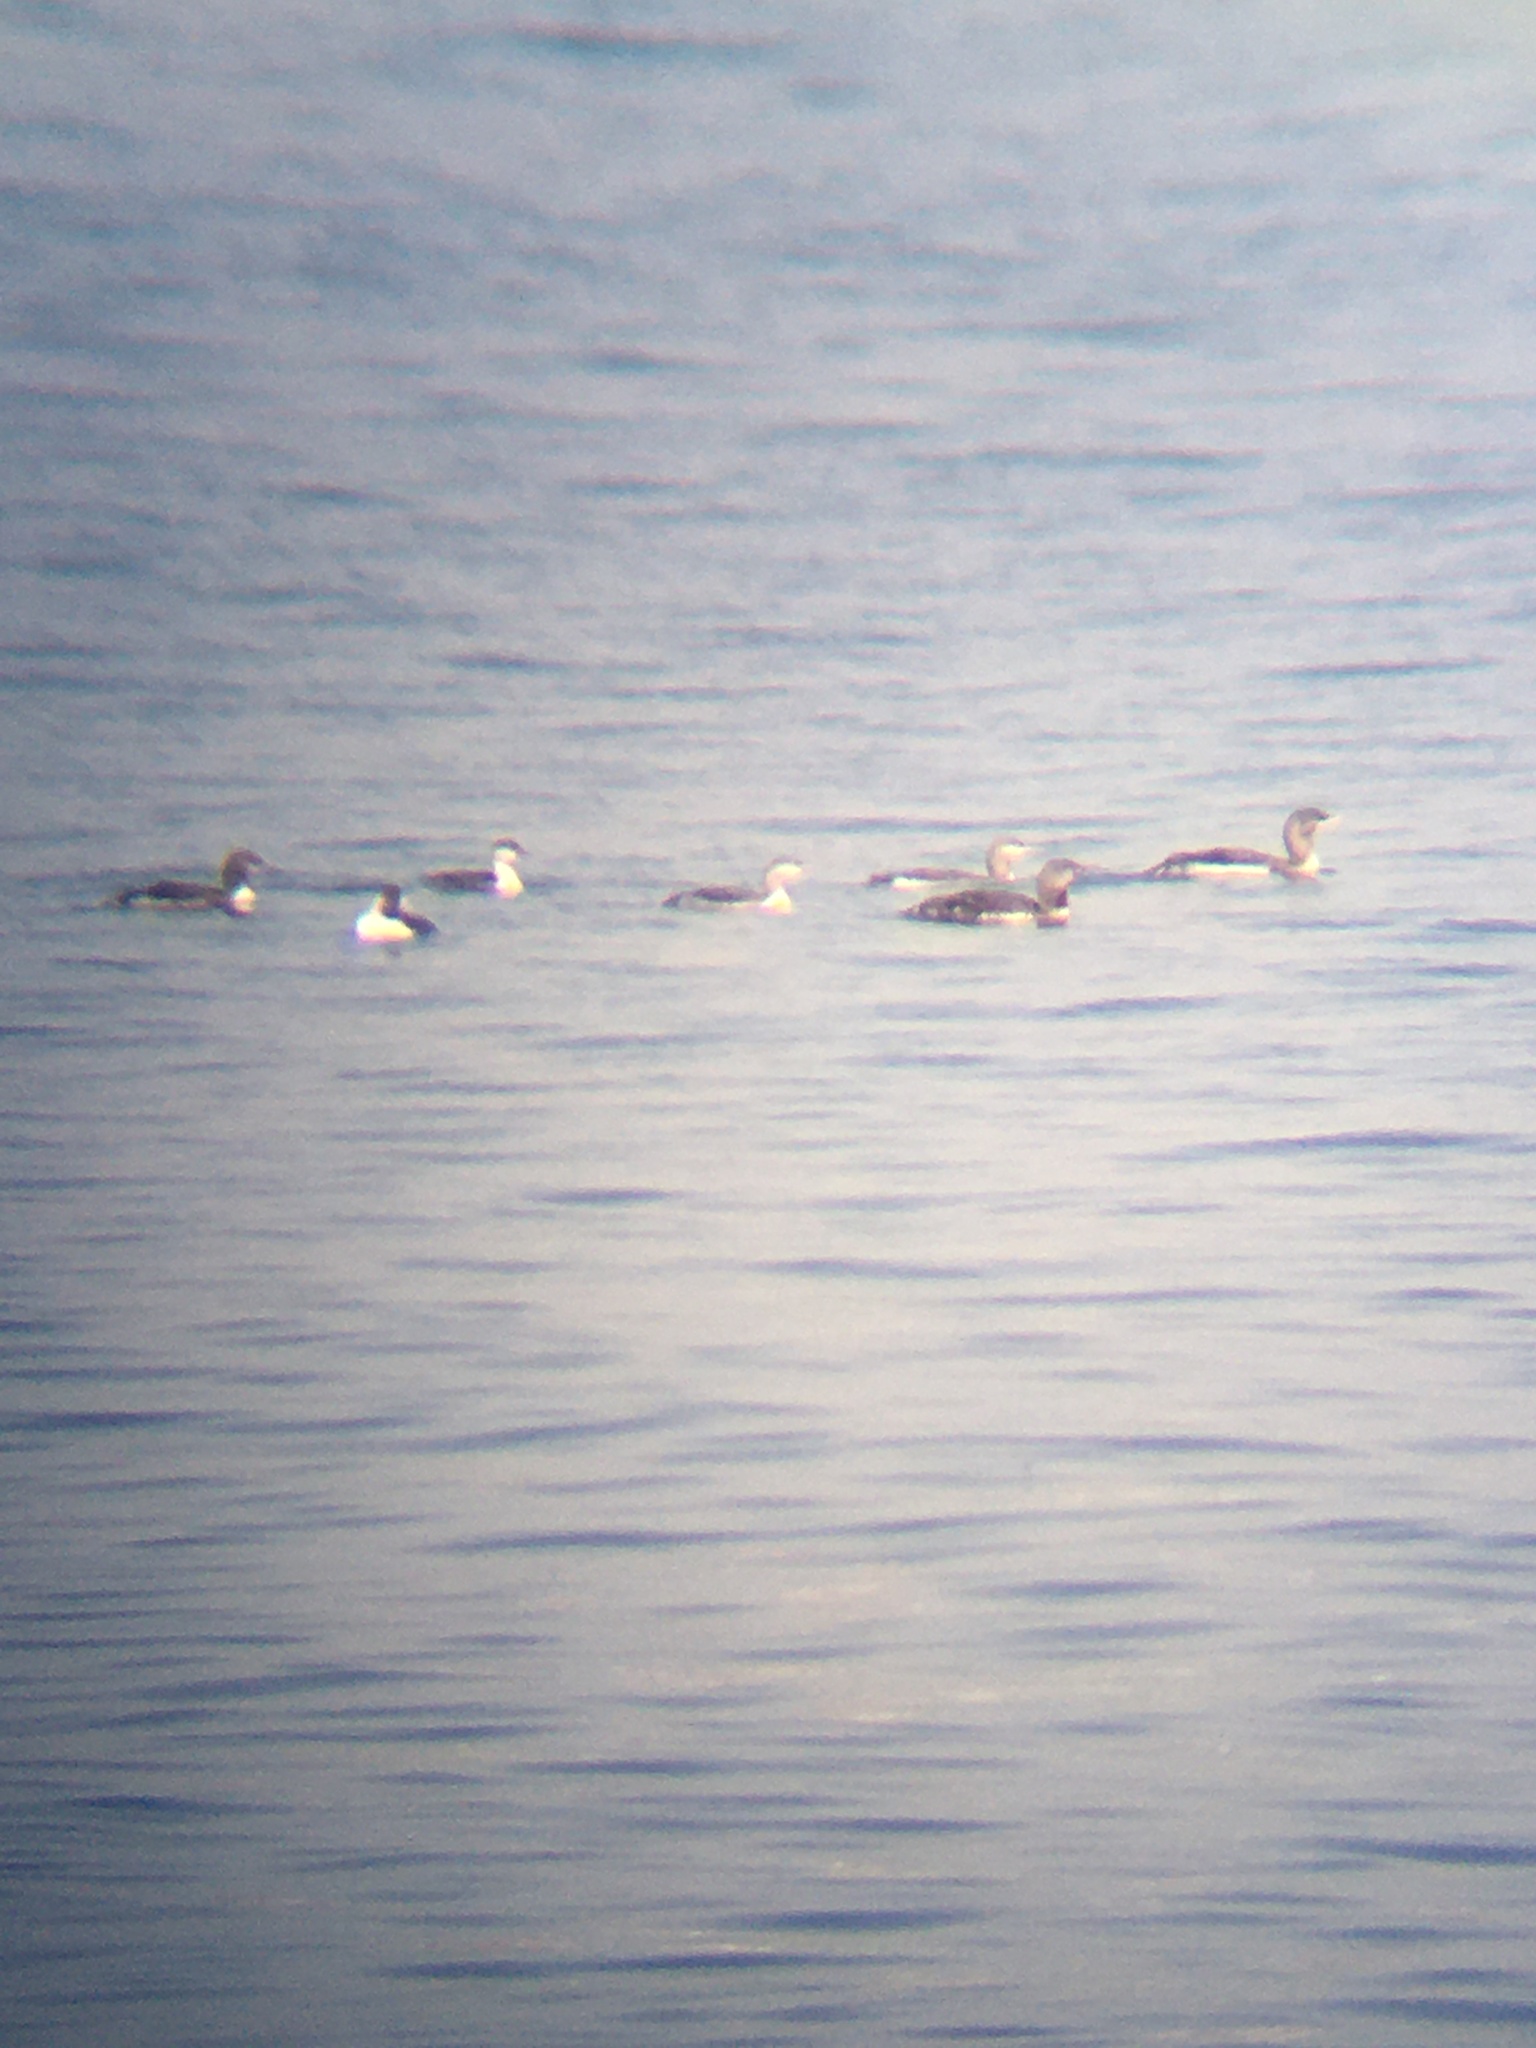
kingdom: Animalia
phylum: Chordata
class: Aves
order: Gaviiformes
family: Gaviidae
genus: Gavia
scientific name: Gavia stellata
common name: Red-throated loon
